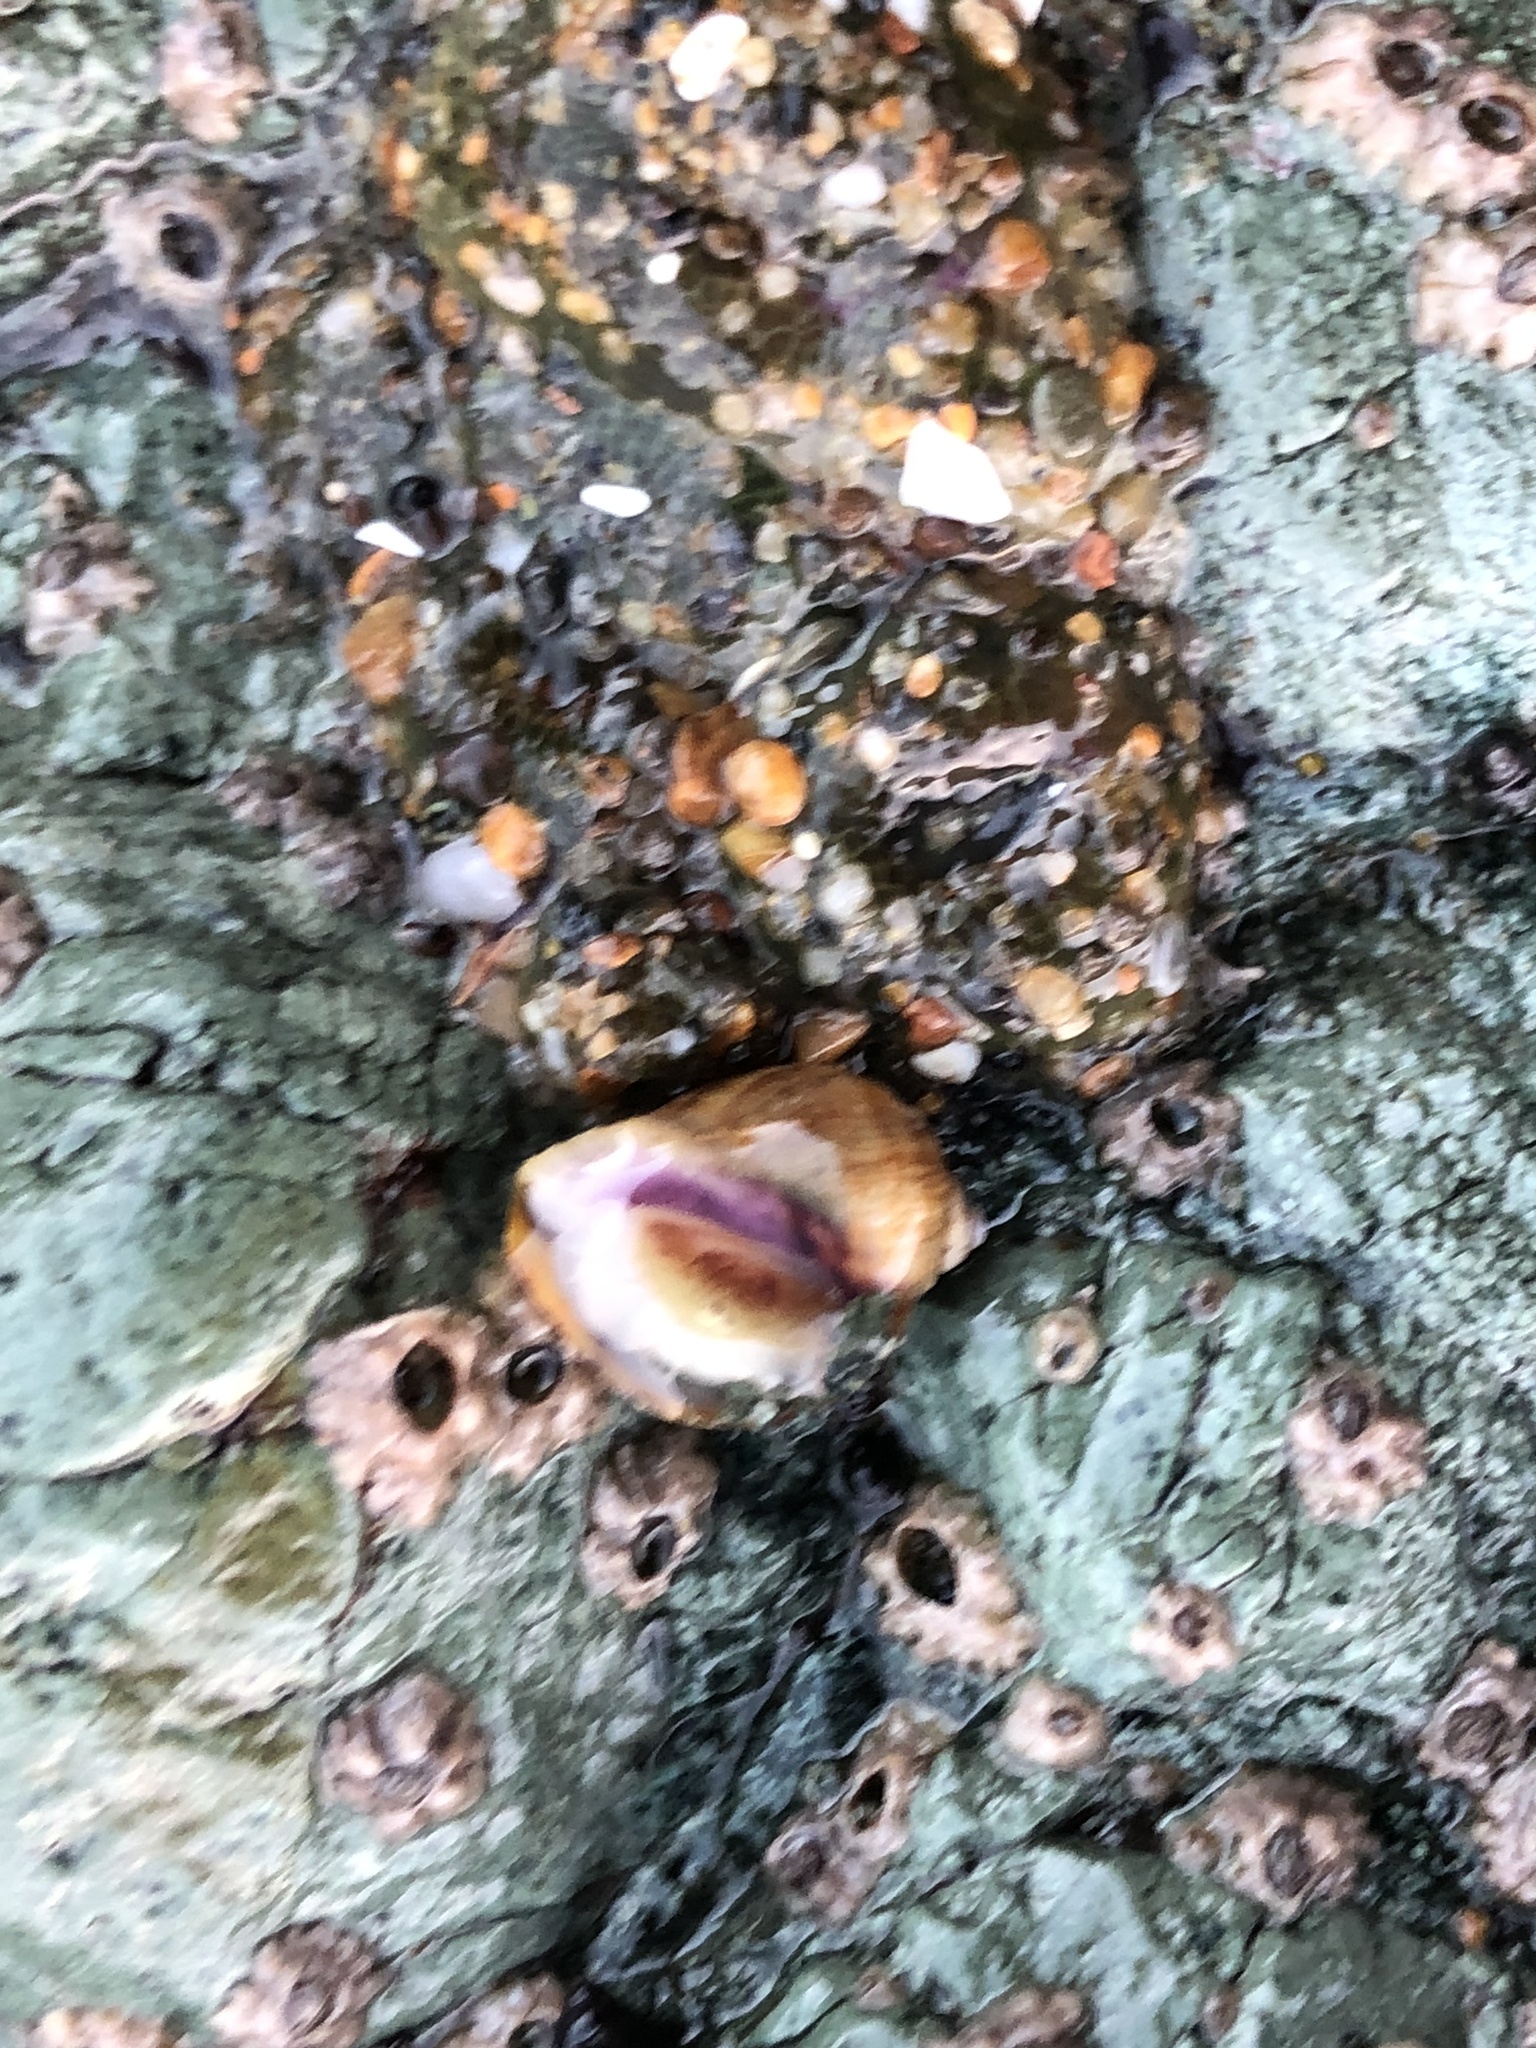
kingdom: Animalia
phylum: Mollusca
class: Gastropoda
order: Neogastropoda
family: Muricidae
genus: Nucella
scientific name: Nucella ostrina
